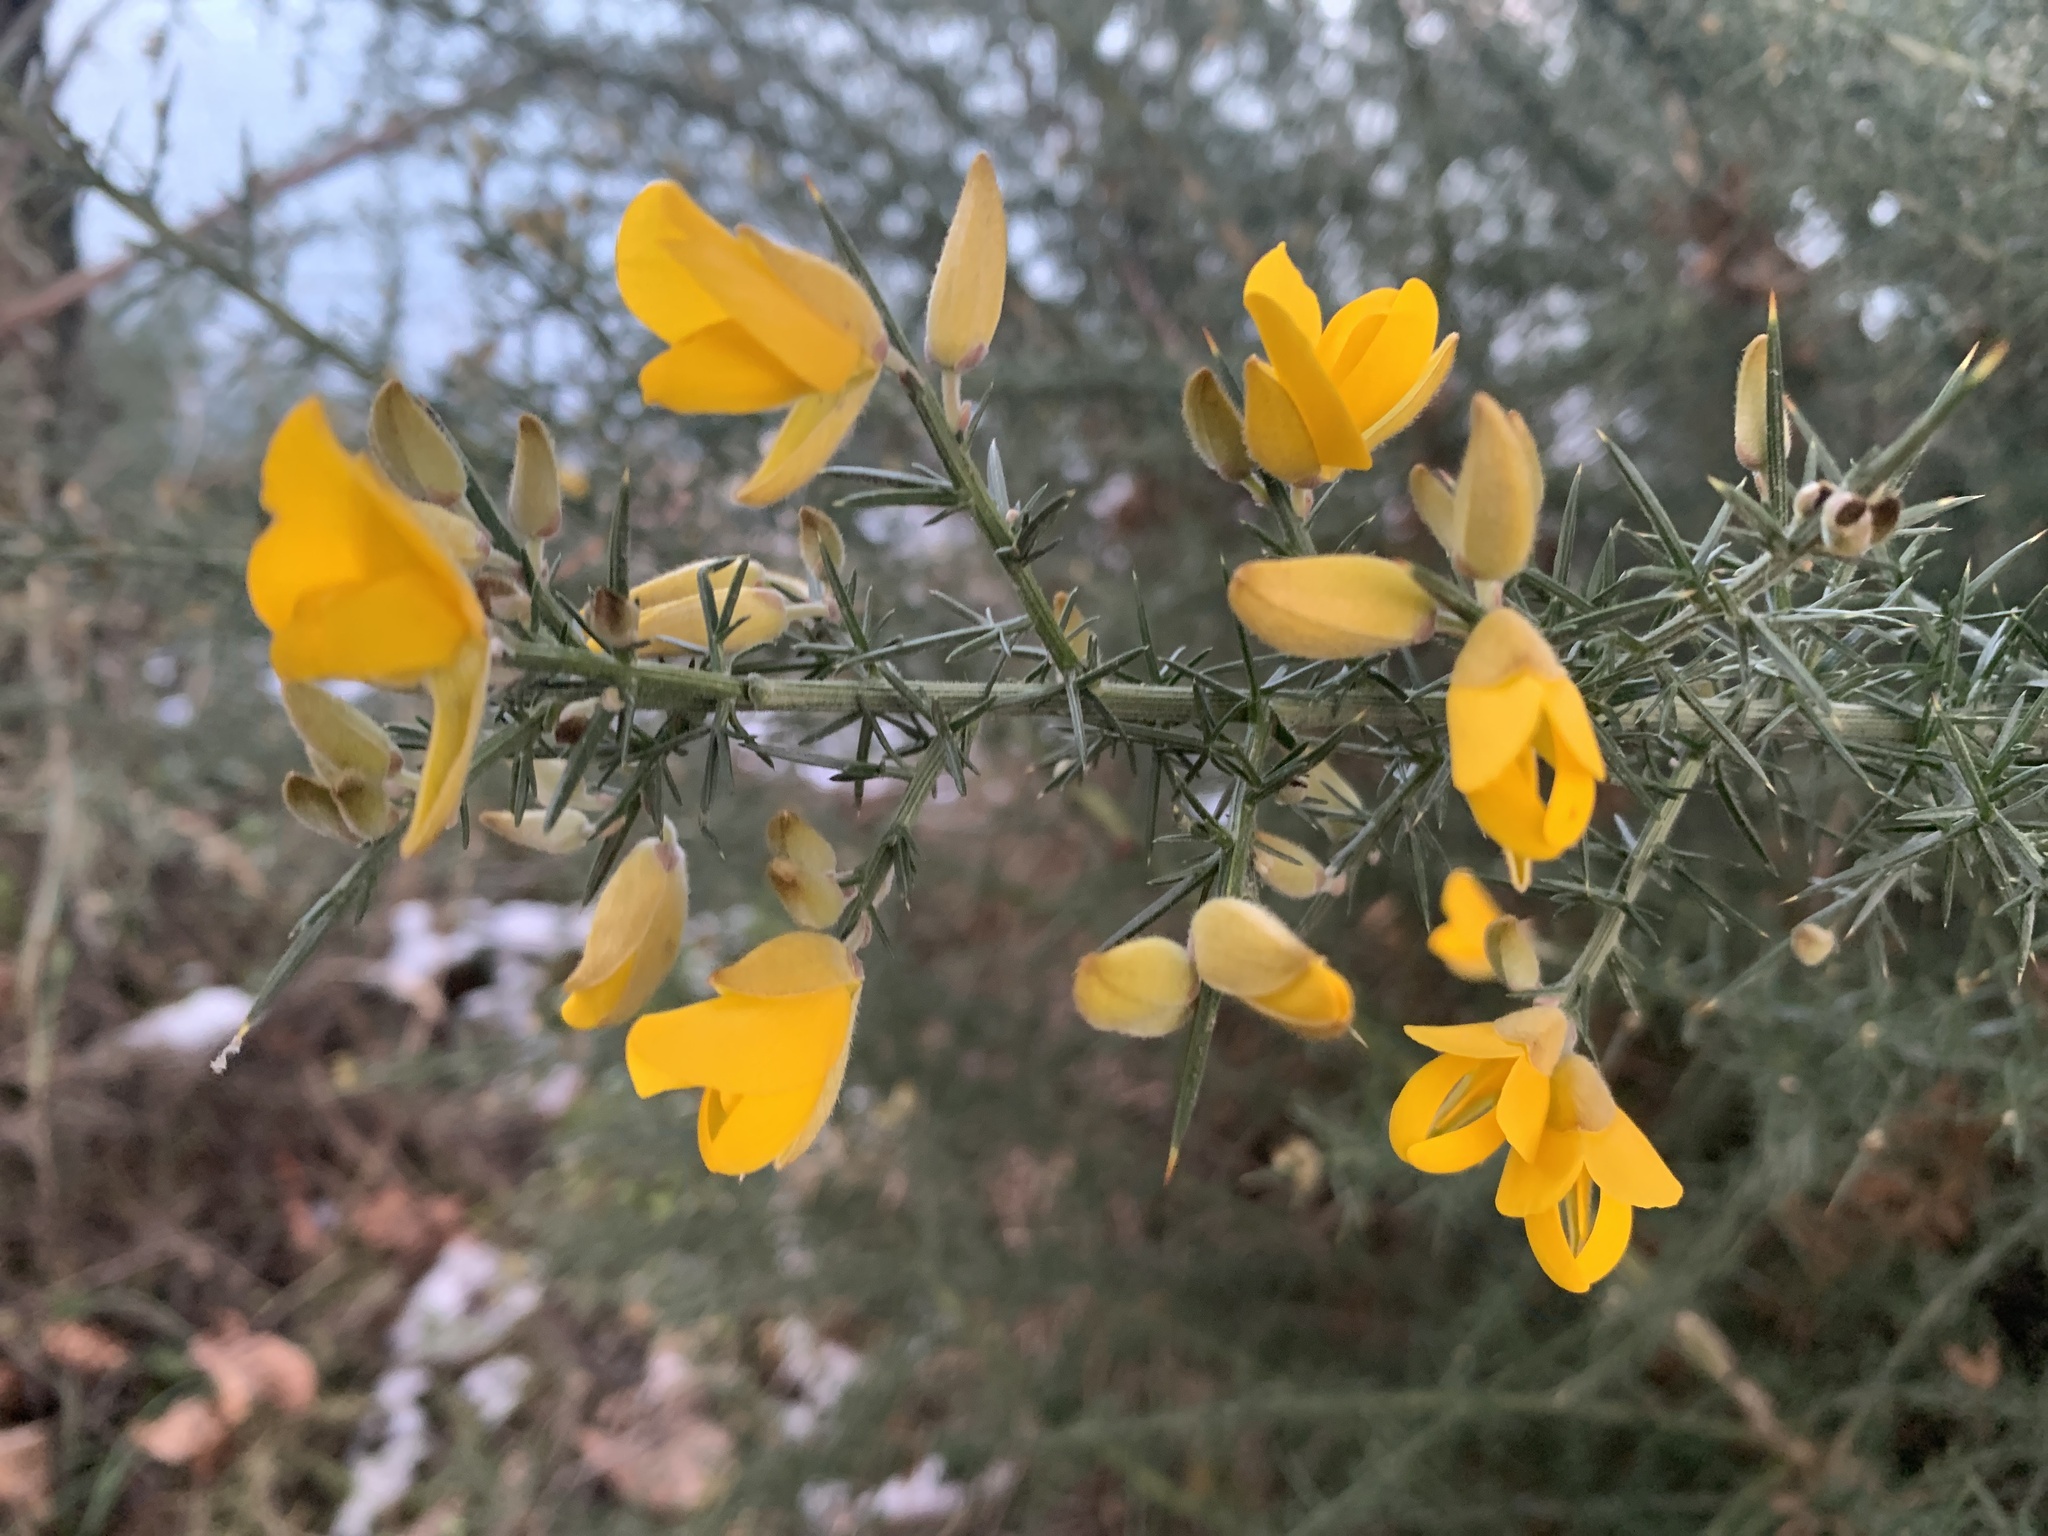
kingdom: Plantae
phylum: Tracheophyta
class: Magnoliopsida
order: Fabales
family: Fabaceae
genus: Ulex
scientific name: Ulex europaeus
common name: Common gorse
